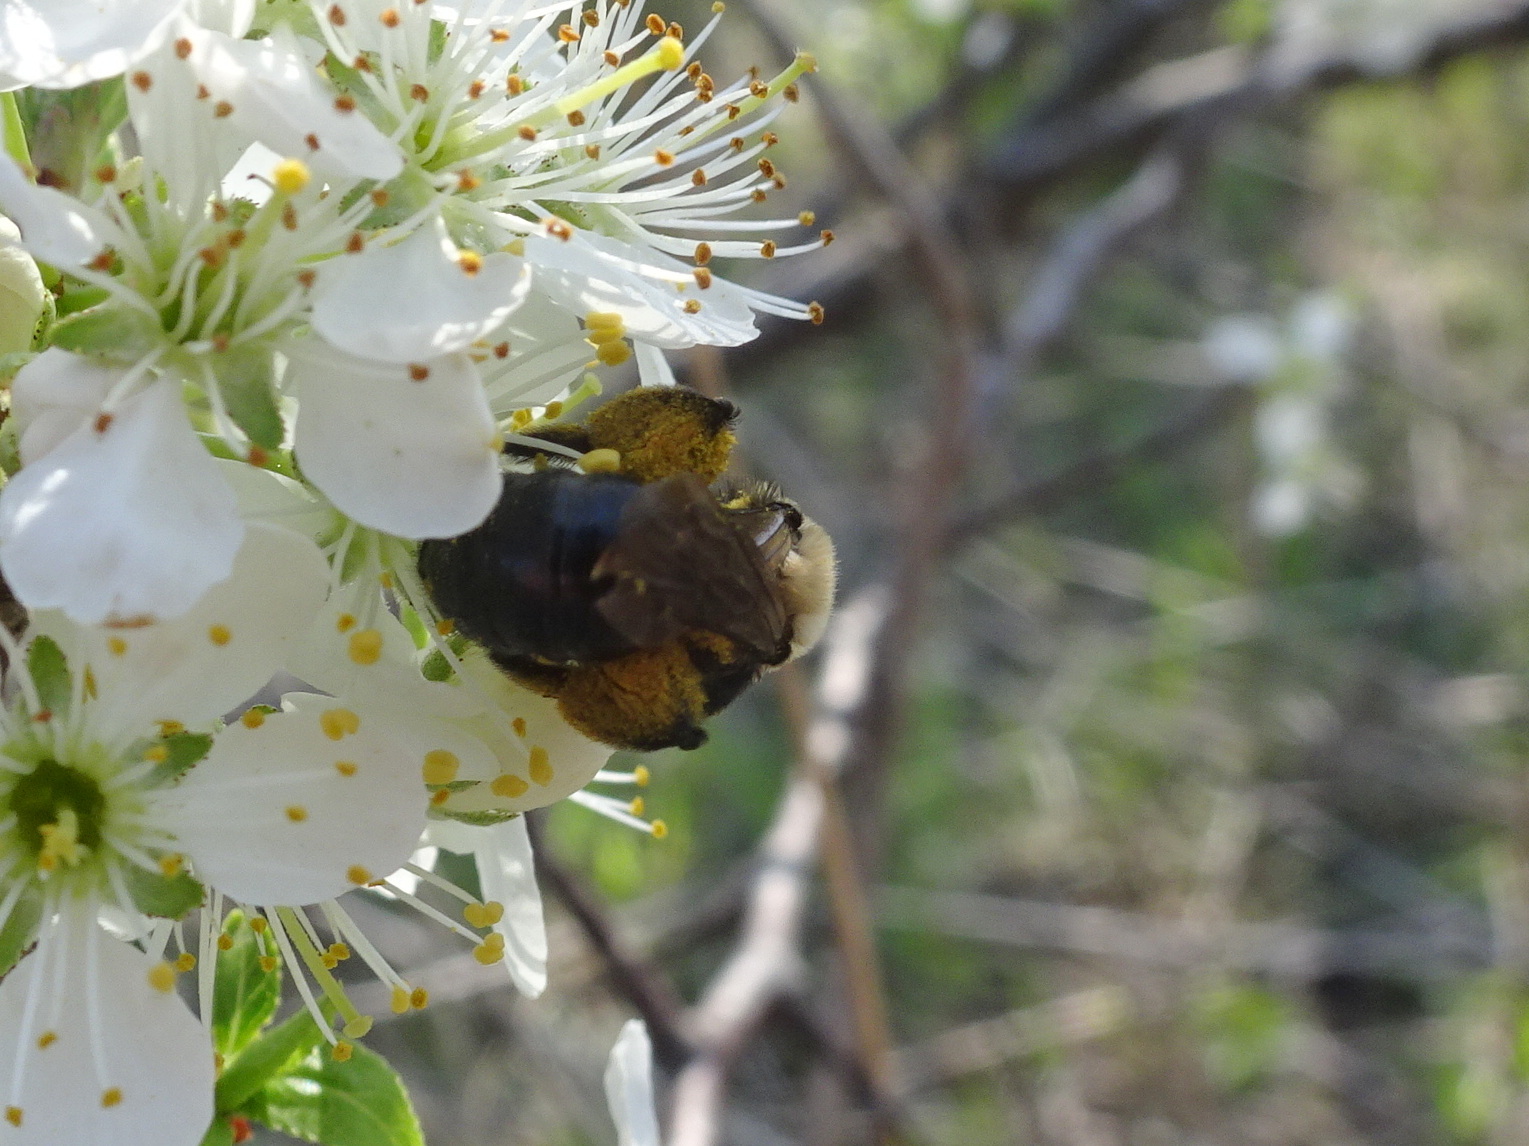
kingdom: Animalia
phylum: Arthropoda
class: Insecta
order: Hymenoptera
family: Andrenidae
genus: Andrena
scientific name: Andrena carlini
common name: Carlin's mining bee
